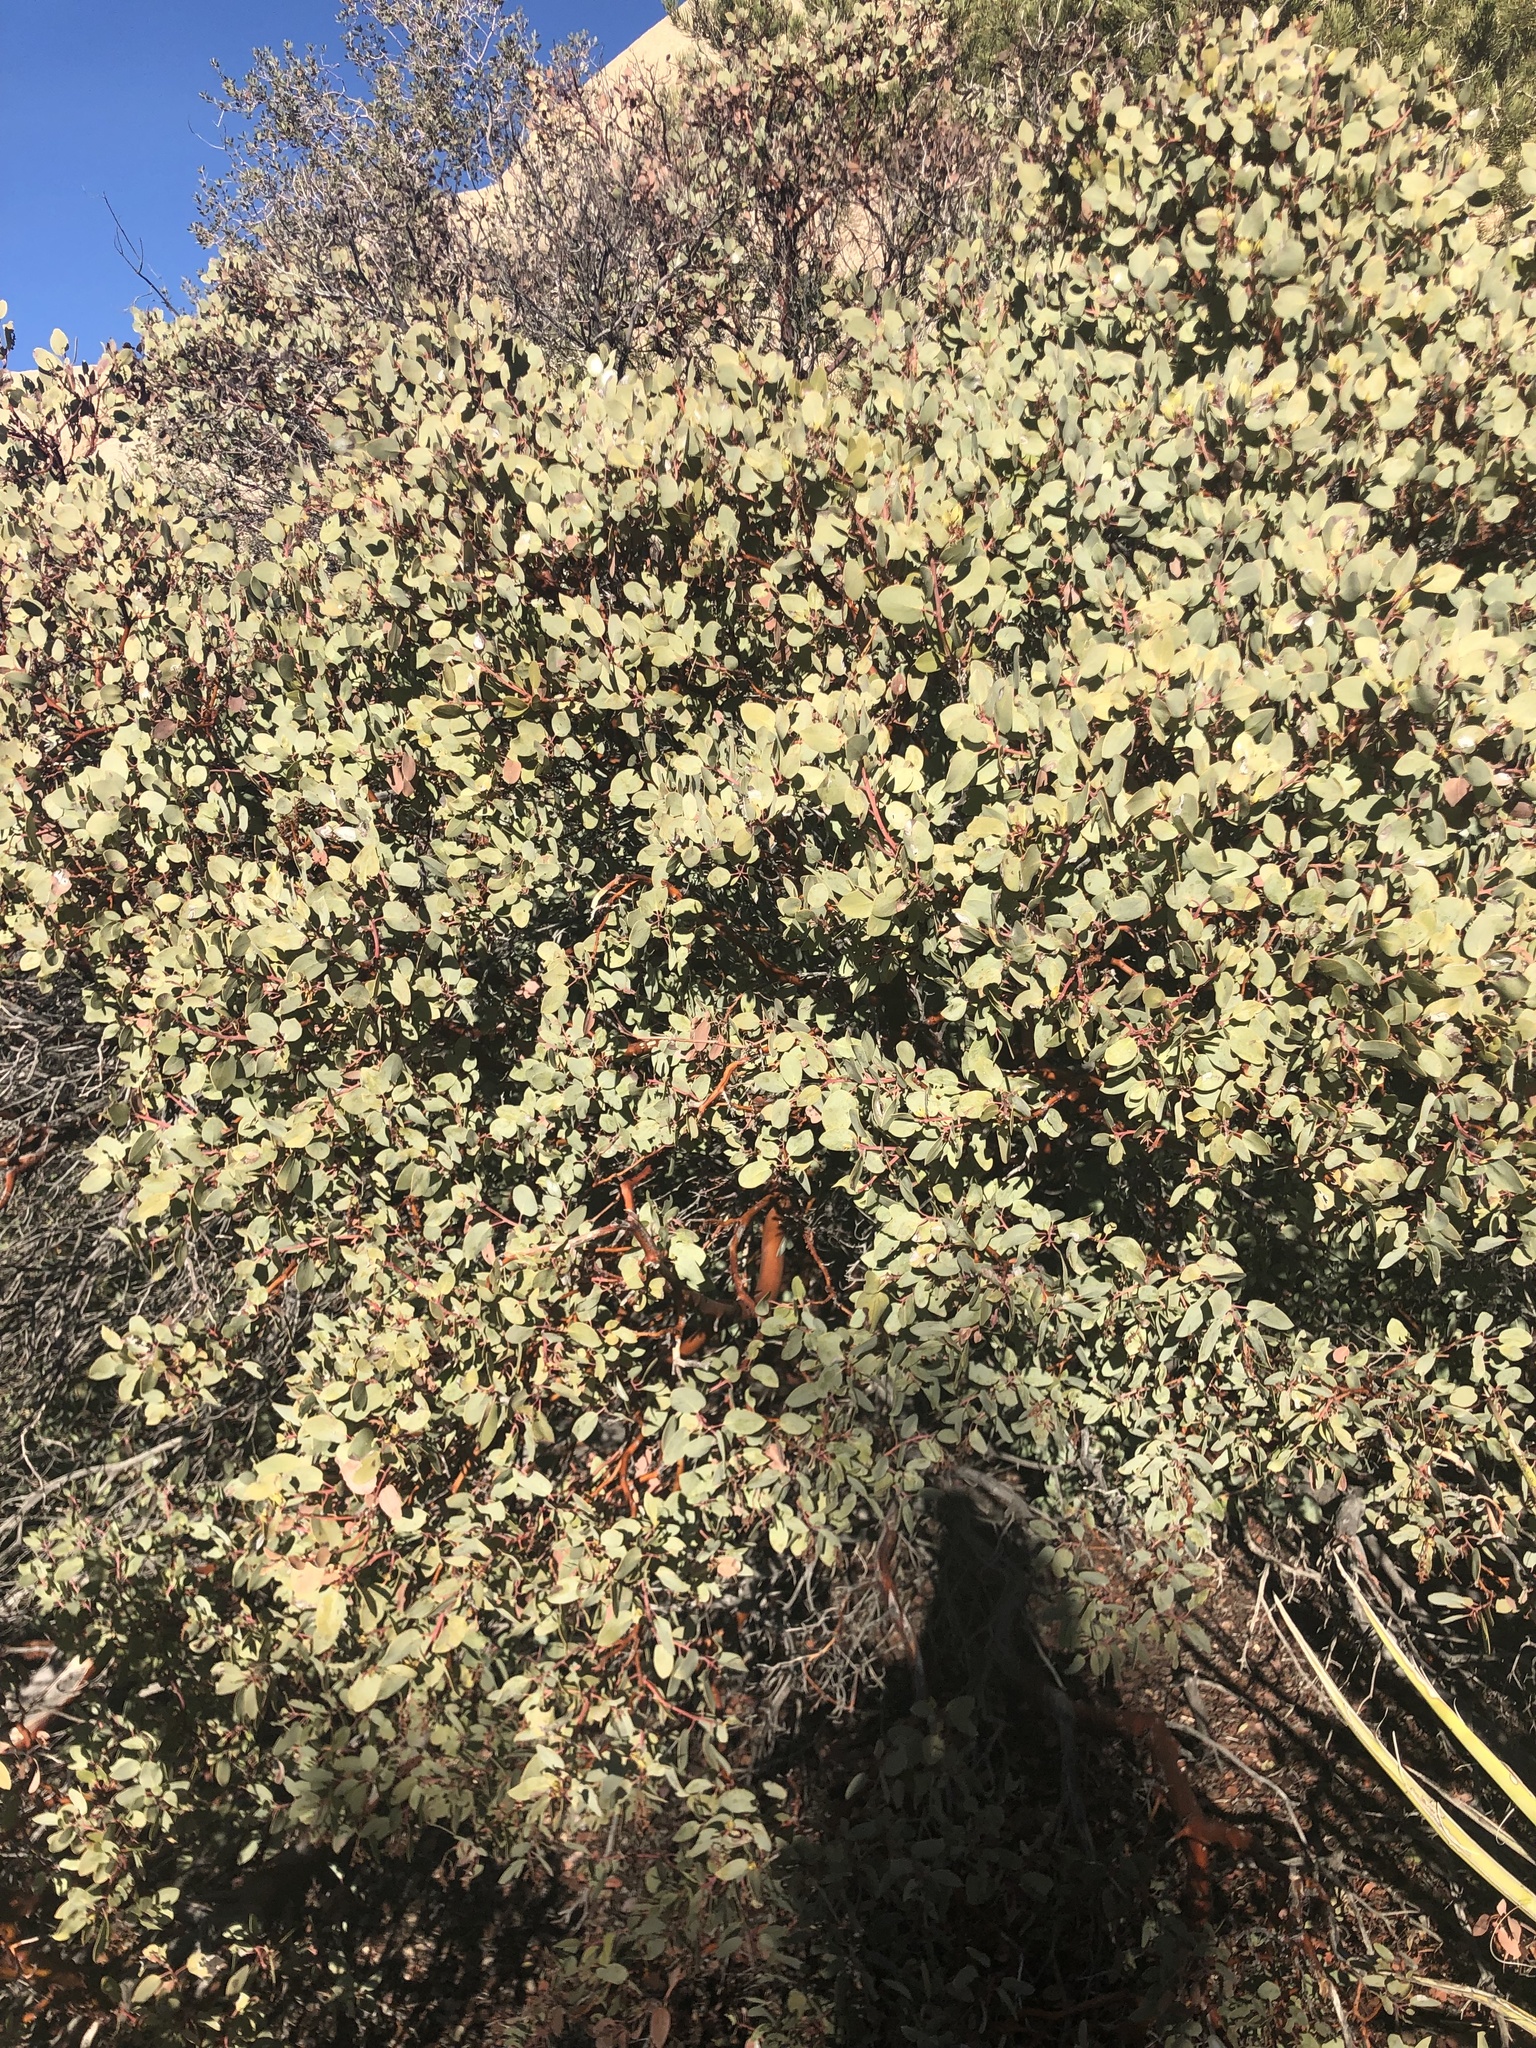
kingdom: Plantae
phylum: Tracheophyta
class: Magnoliopsida
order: Ericales
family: Ericaceae
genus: Arctostaphylos
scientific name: Arctostaphylos glauca
